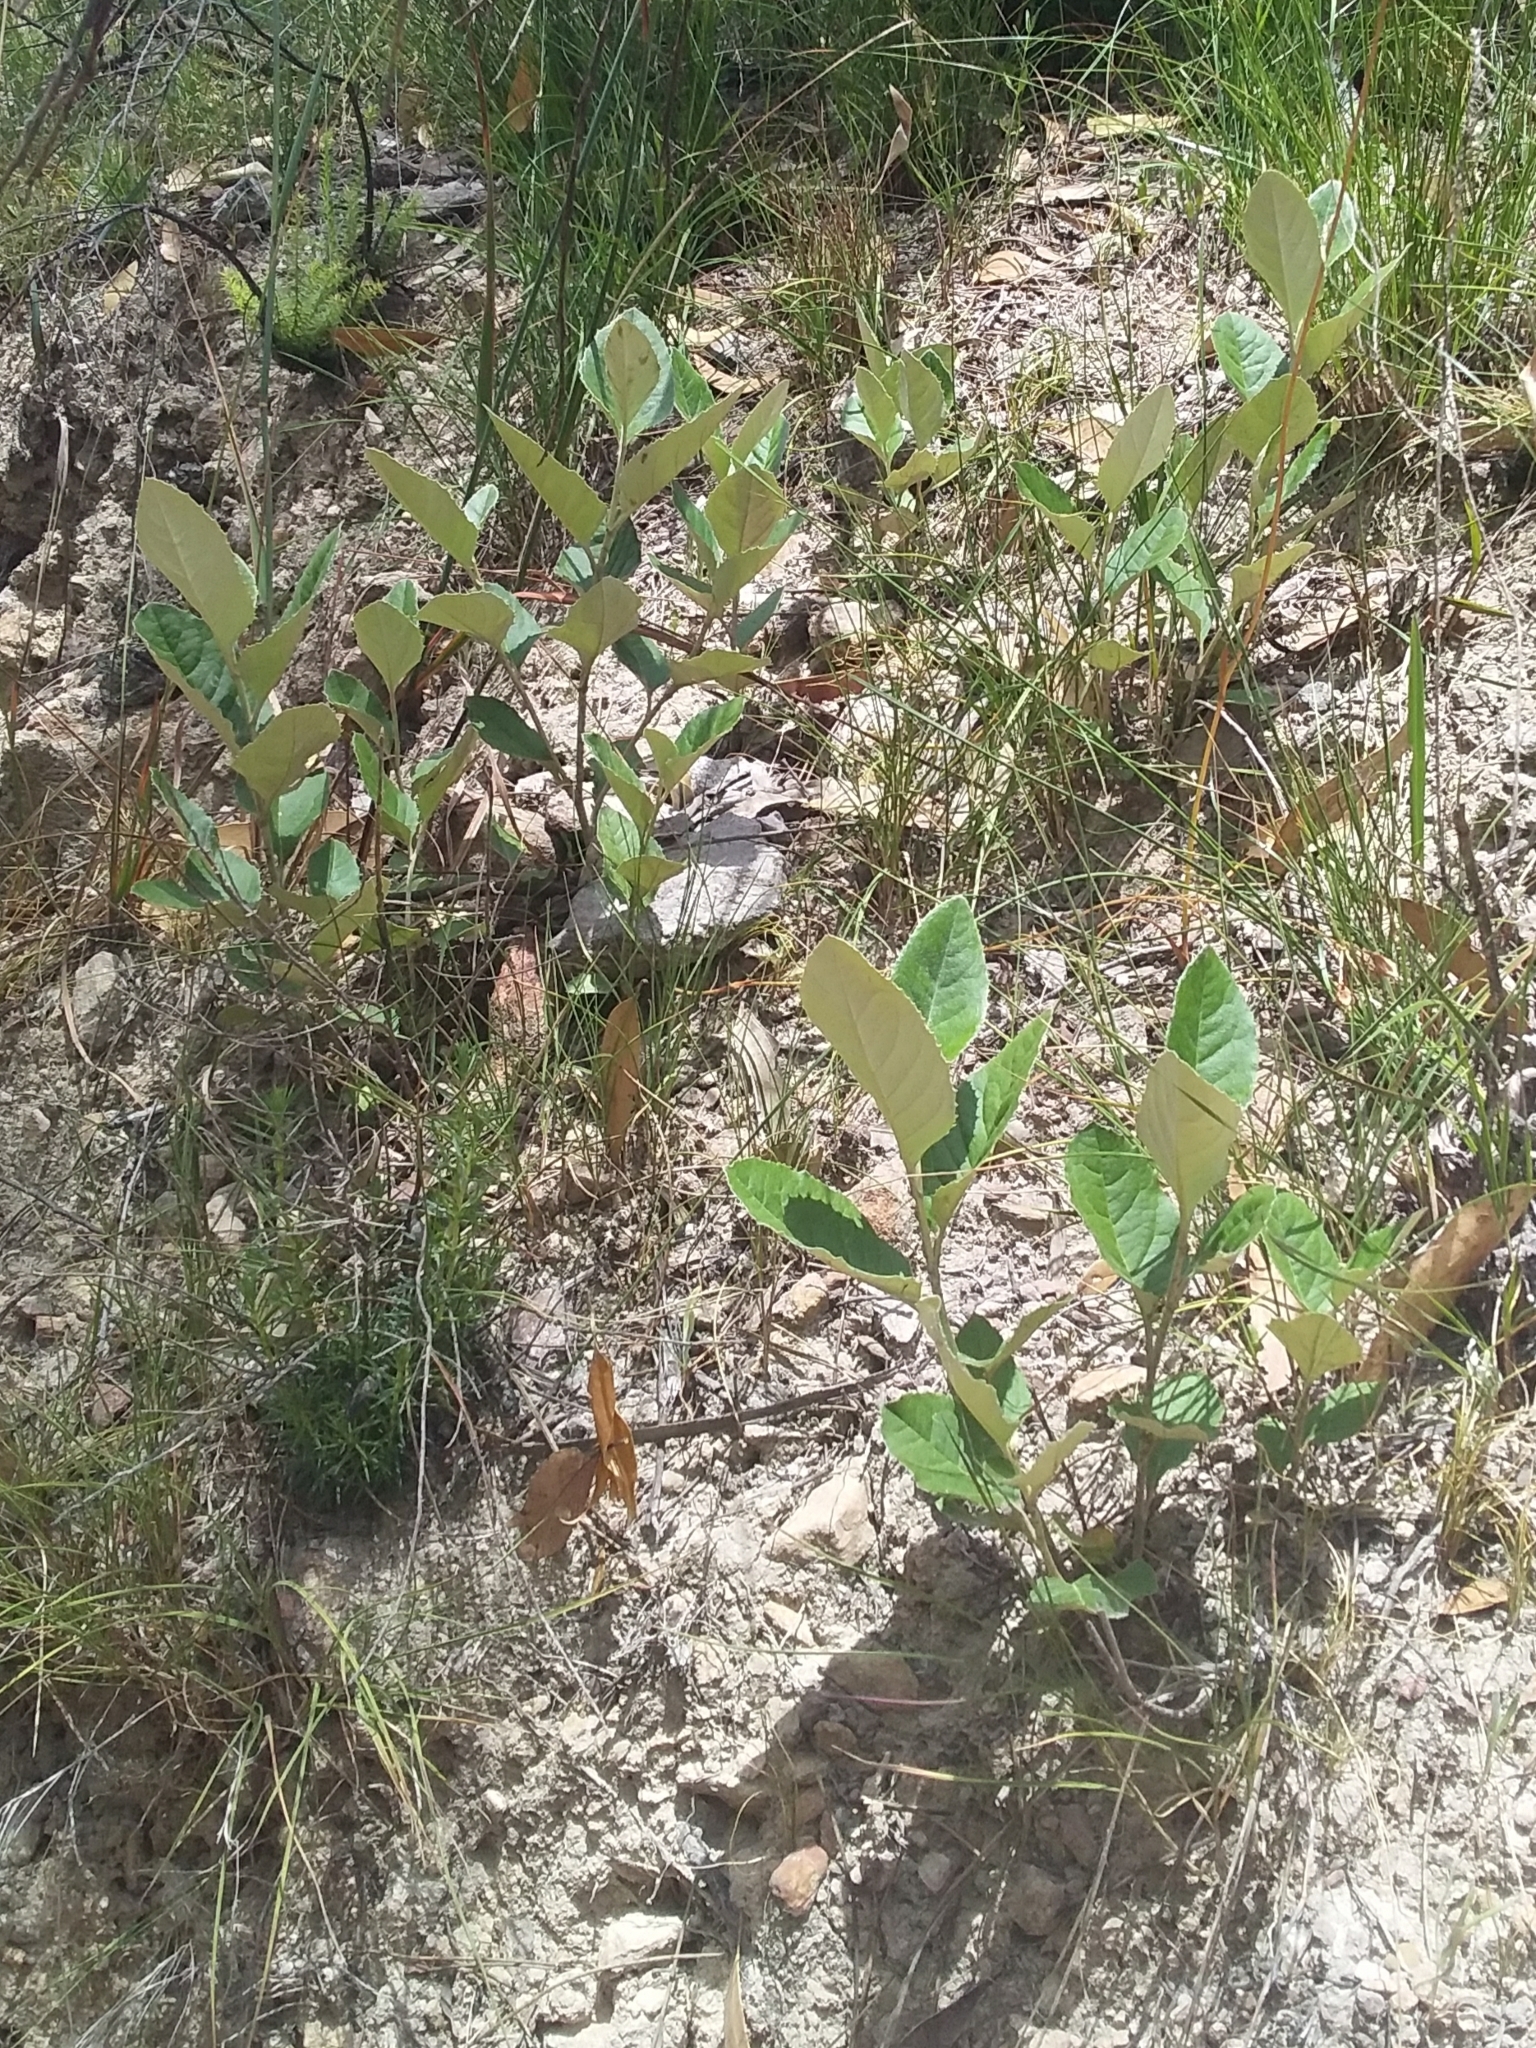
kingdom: Plantae
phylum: Tracheophyta
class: Magnoliopsida
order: Asterales
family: Asteraceae
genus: Olearia
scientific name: Olearia grandiflora
